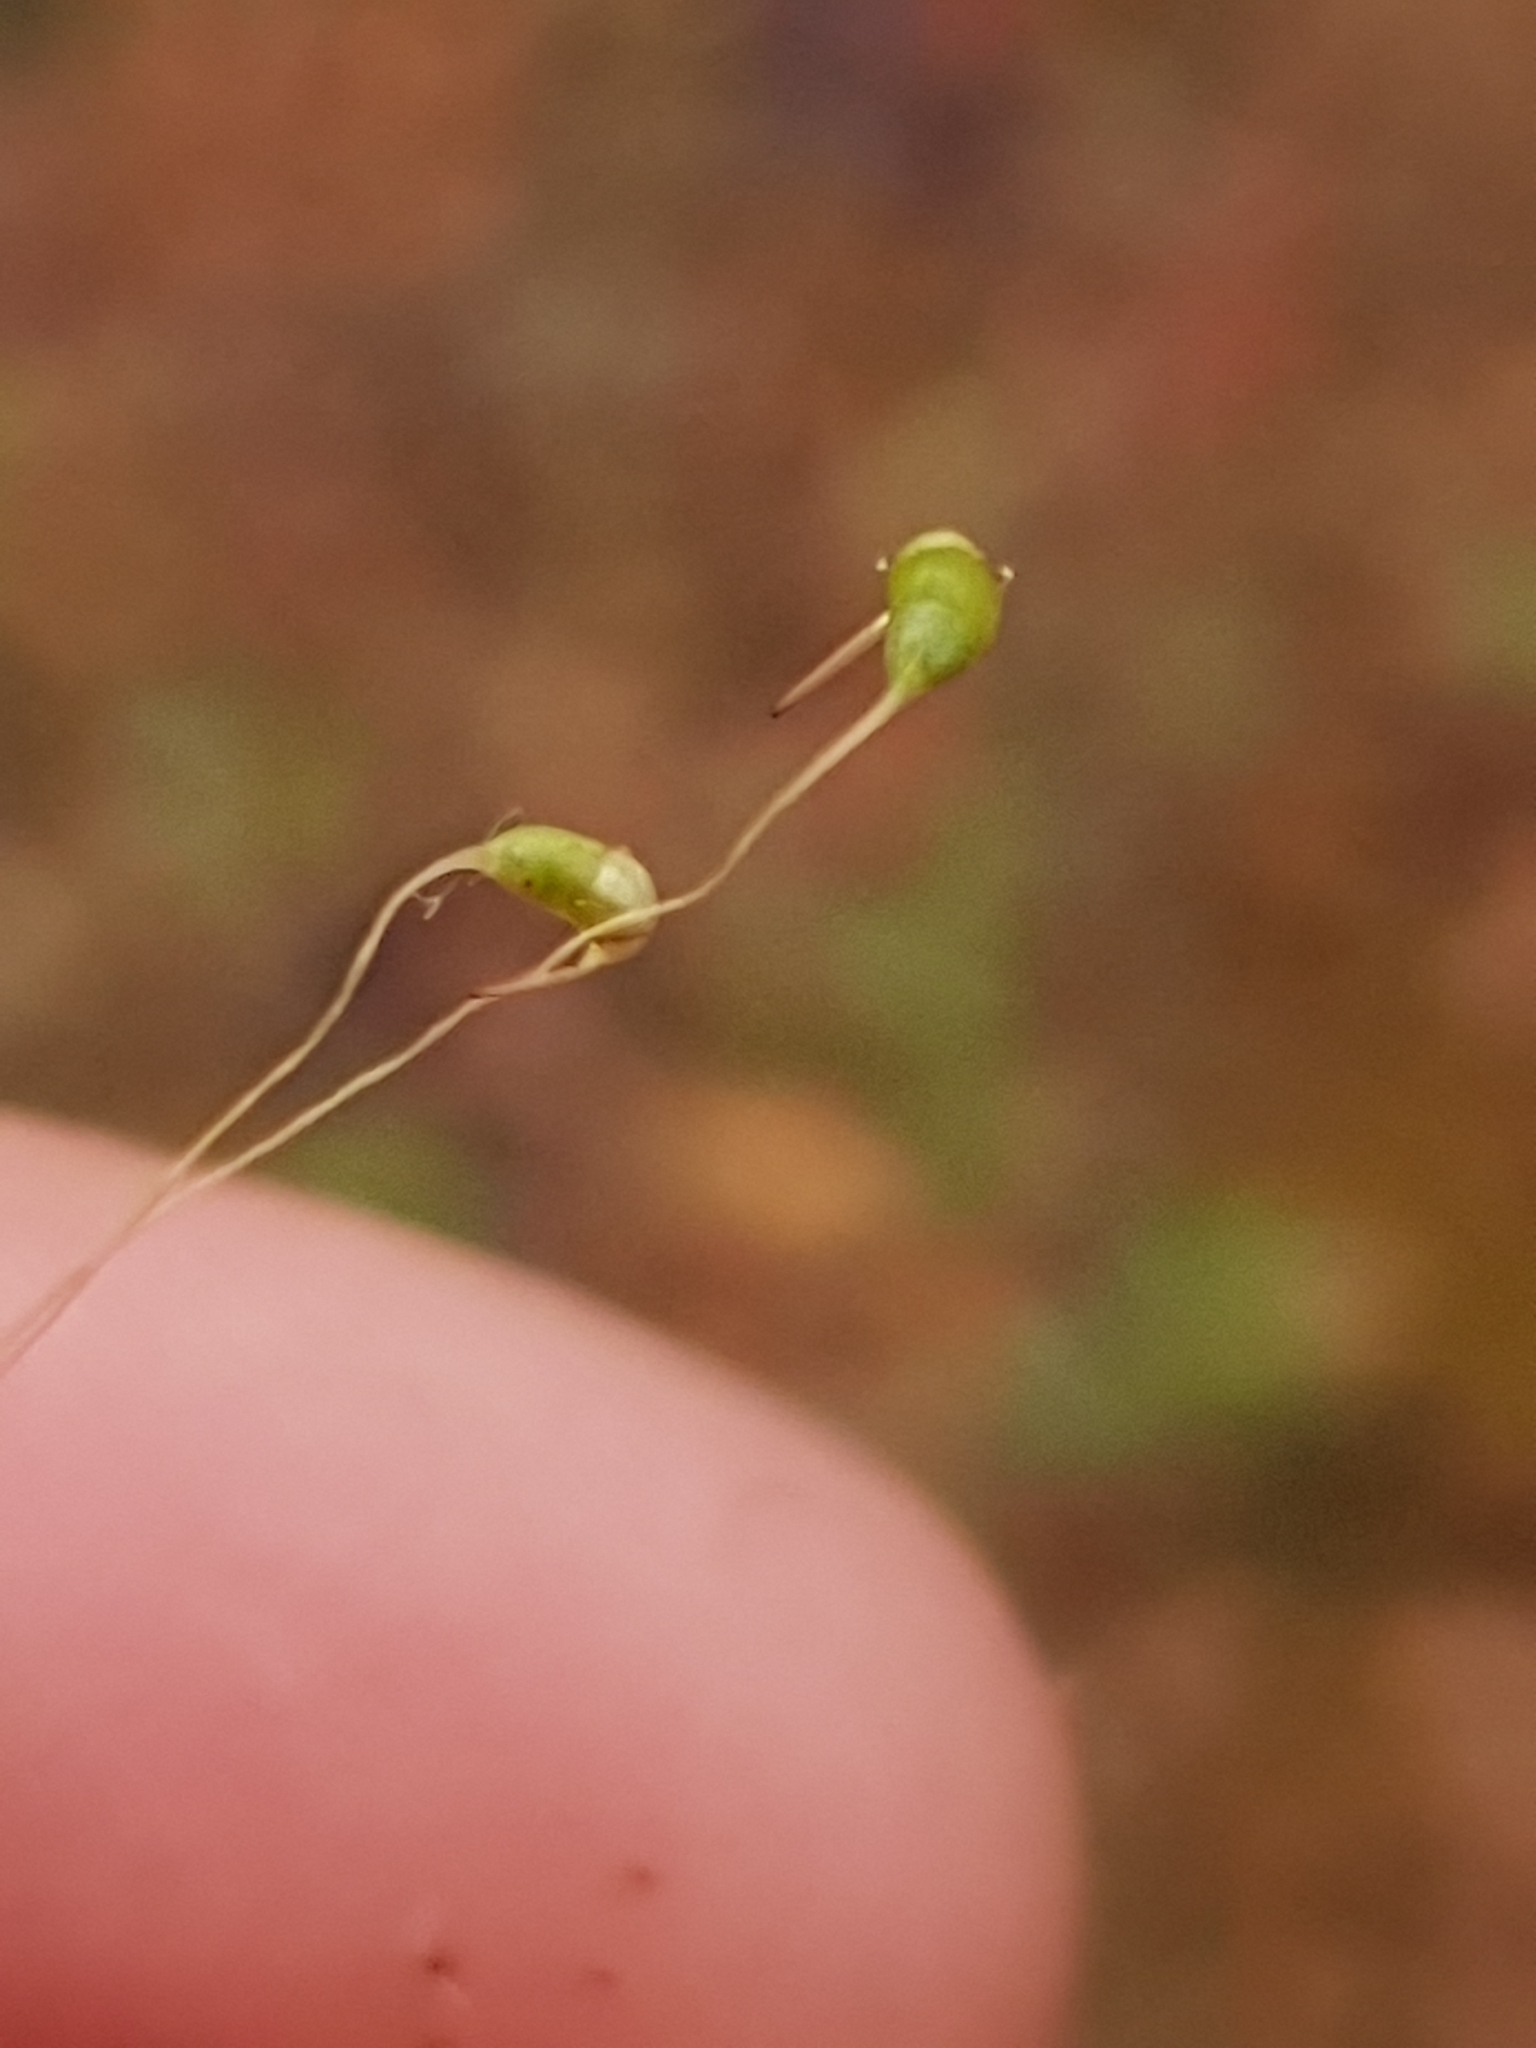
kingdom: Plantae
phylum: Bryophyta
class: Bryopsida
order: Funariales
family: Funariaceae
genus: Funaria
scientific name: Funaria hygrometrica
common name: Common cord moss
